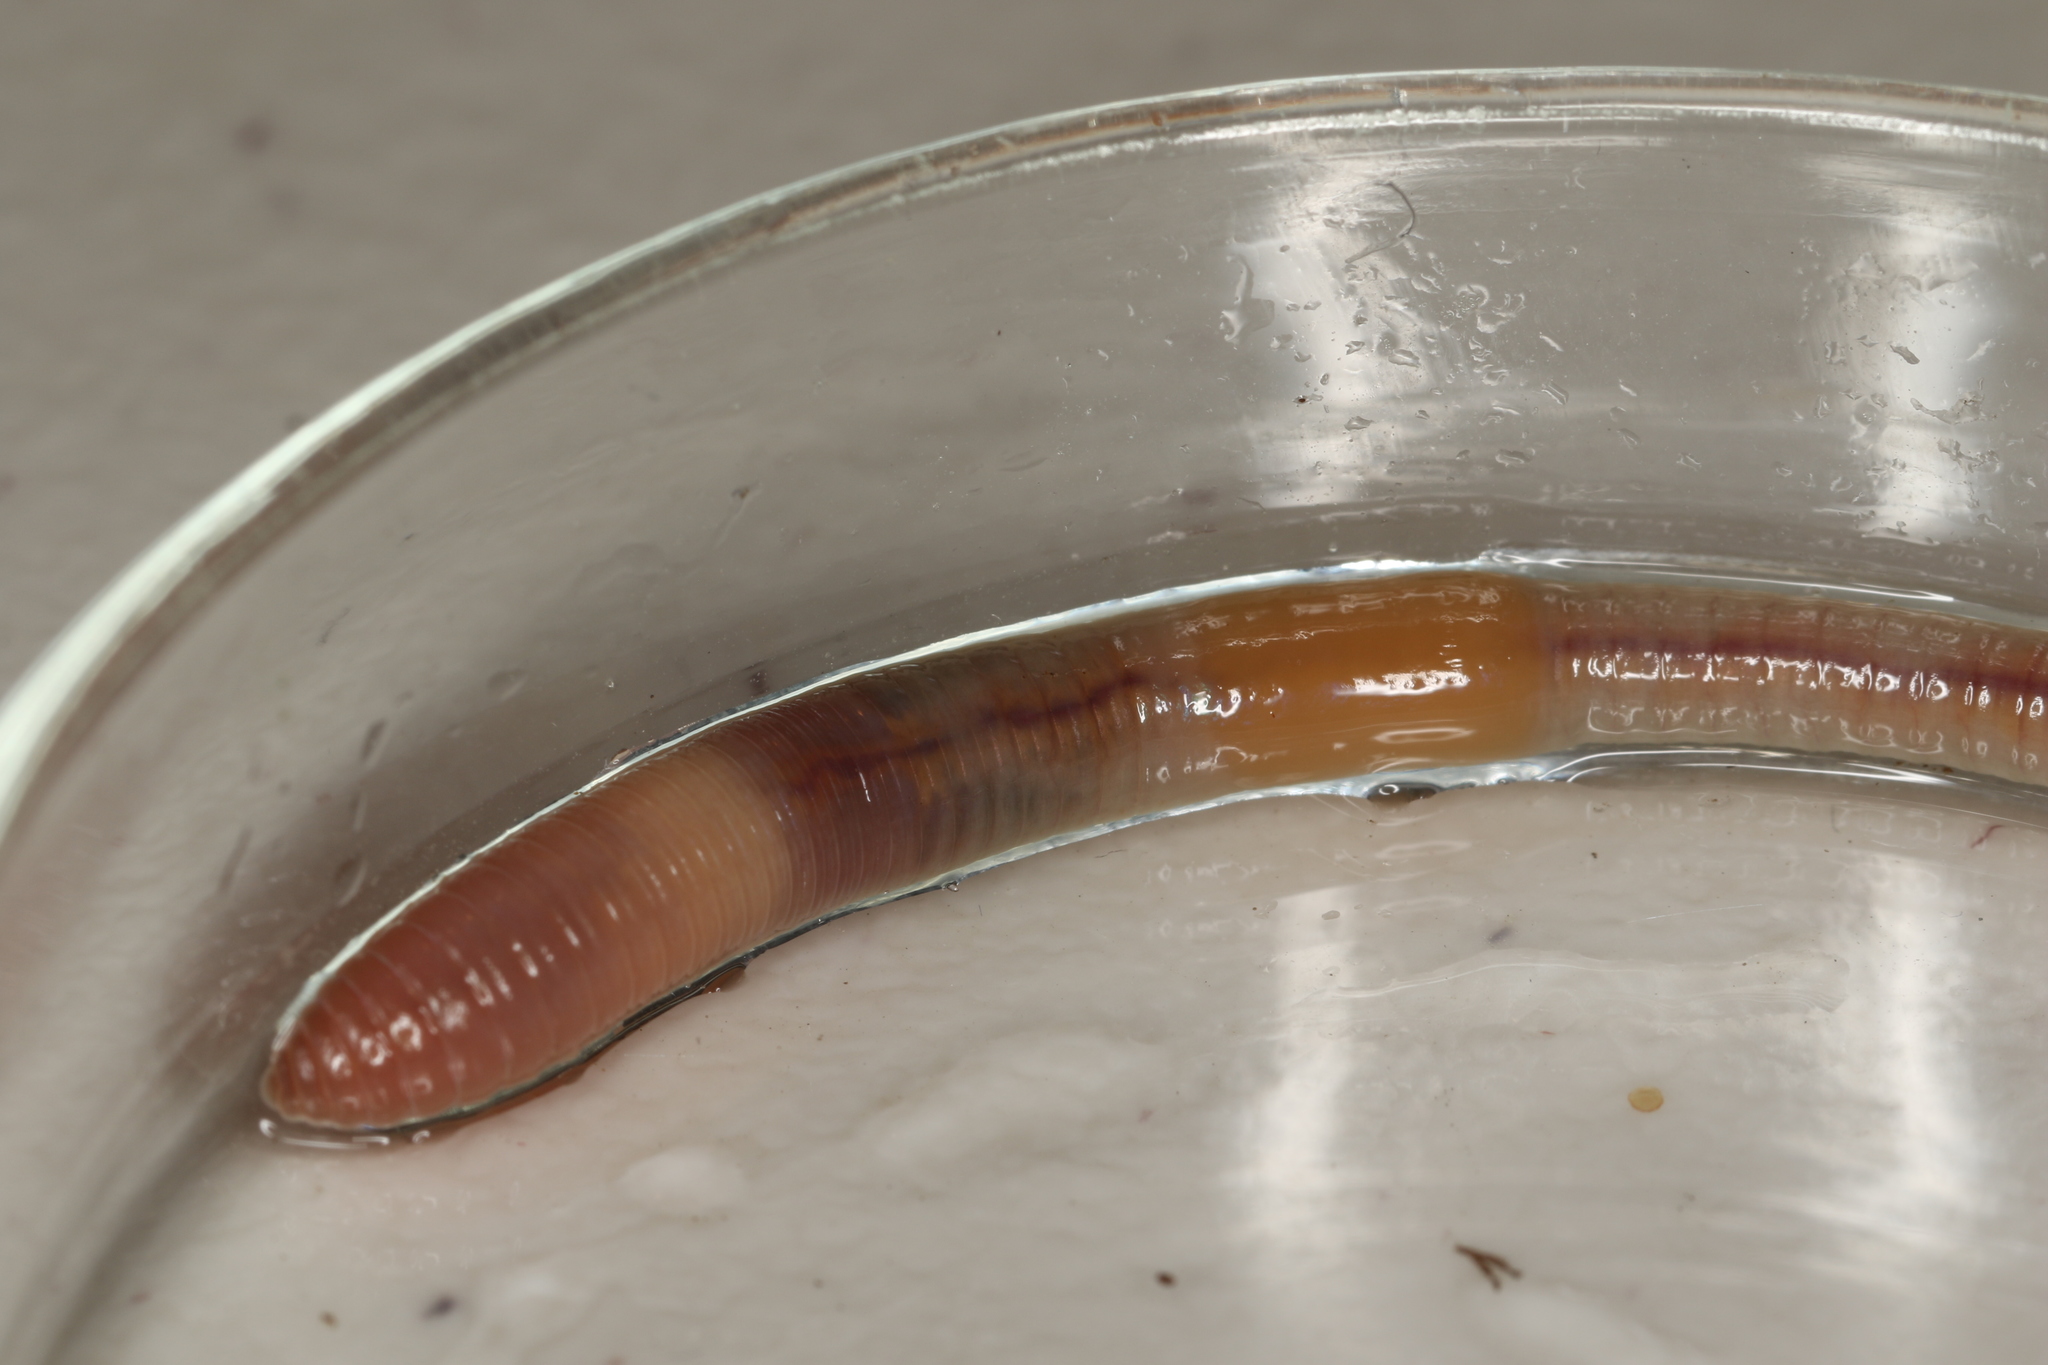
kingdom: Animalia
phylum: Annelida
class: Clitellata
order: Crassiclitellata
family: Lumbricidae
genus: Dendrodrilus
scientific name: Dendrodrilus rubidus
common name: European barkworm
